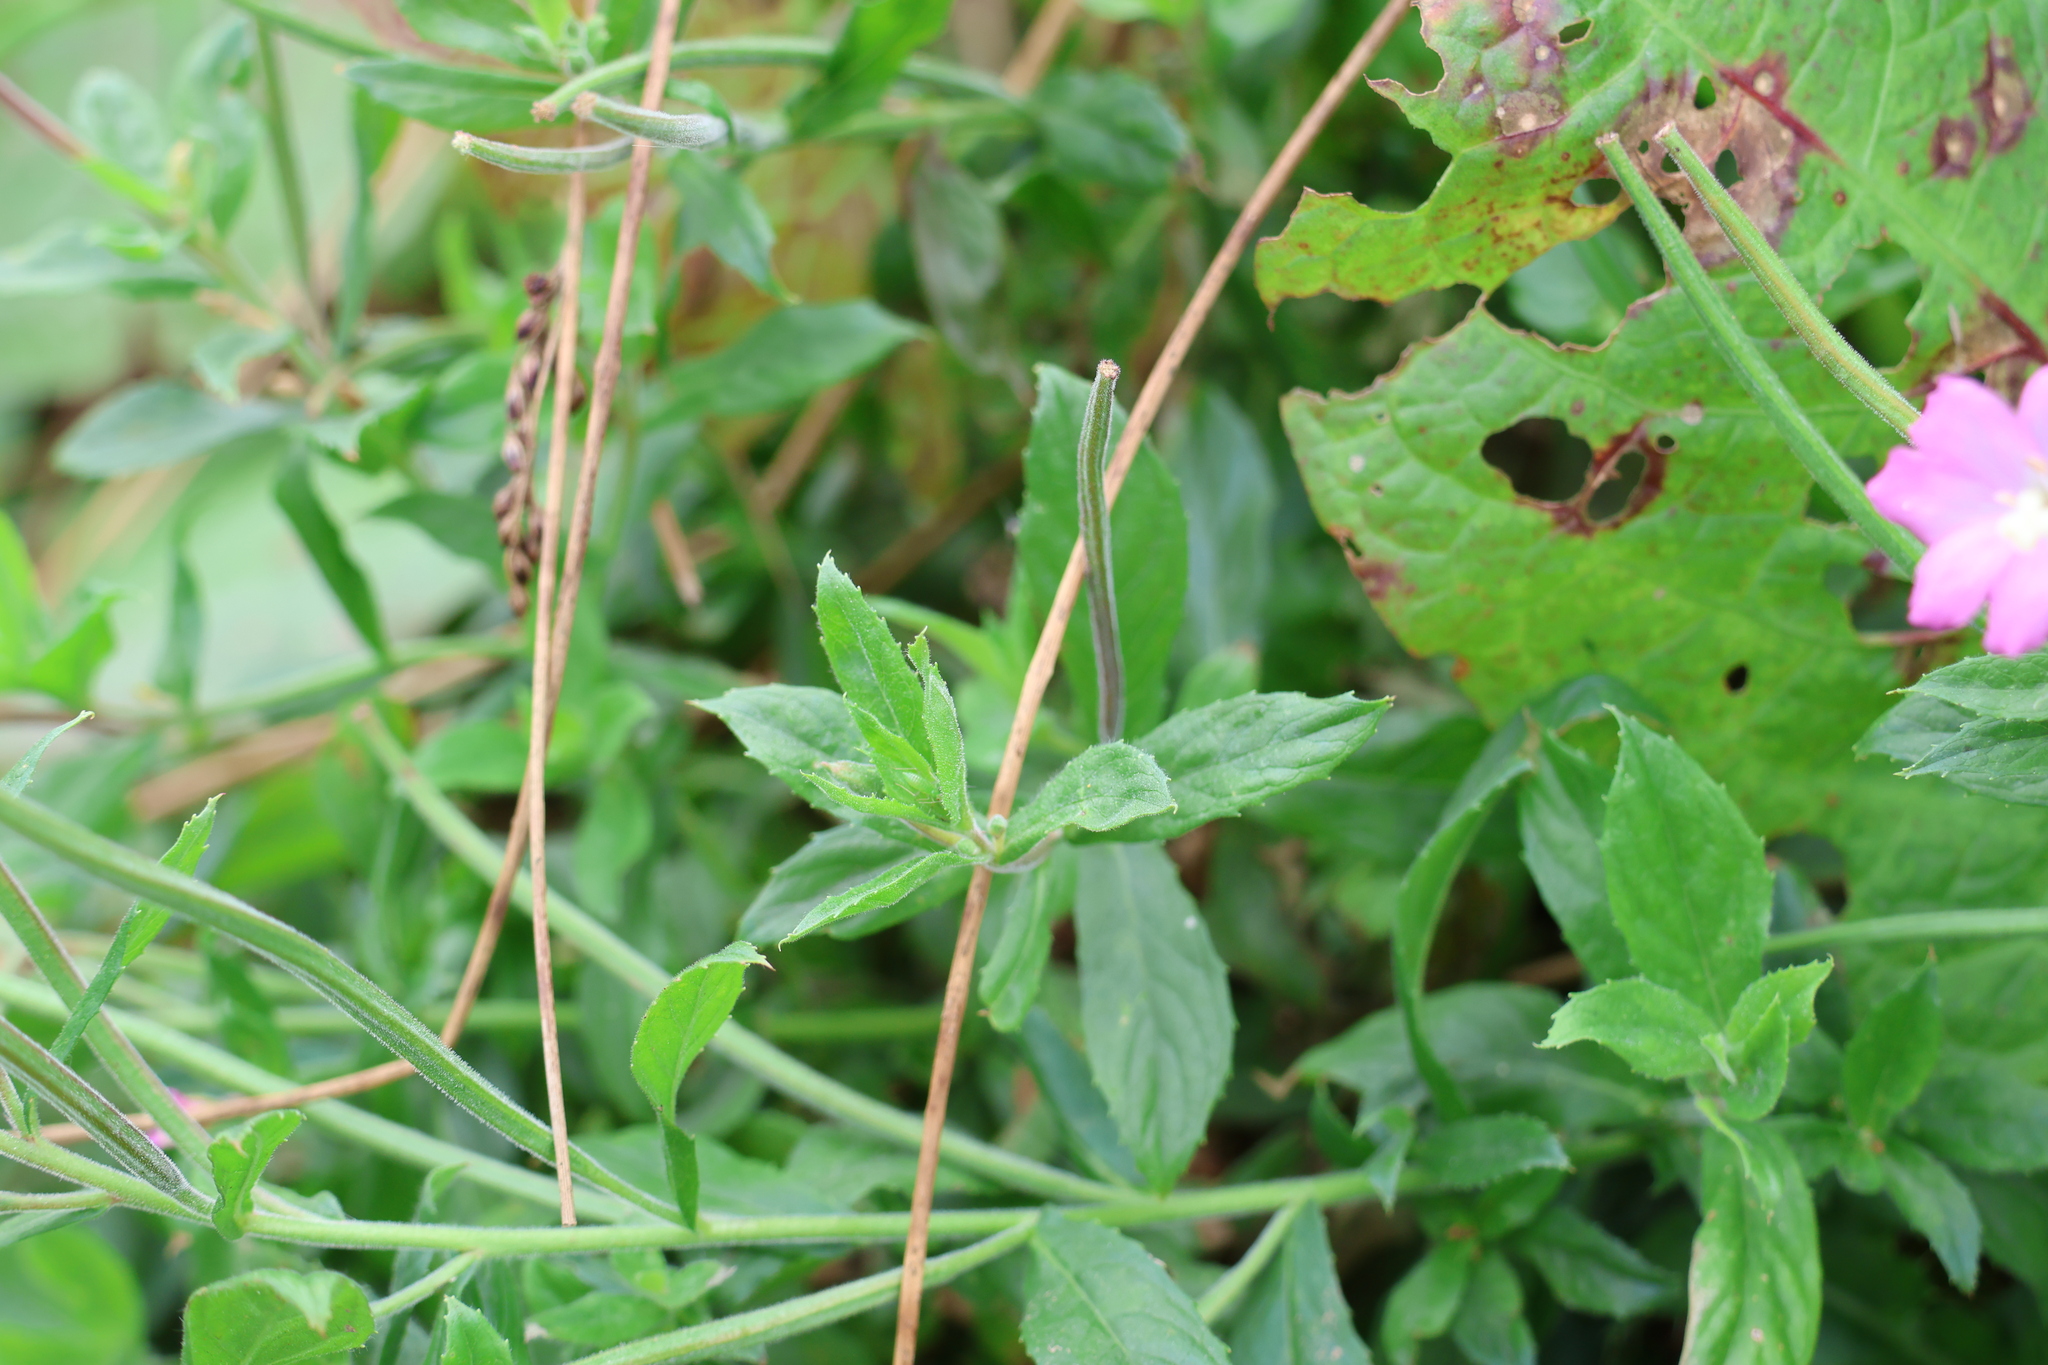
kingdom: Plantae
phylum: Tracheophyta
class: Magnoliopsida
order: Myrtales
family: Onagraceae
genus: Epilobium
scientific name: Epilobium hirsutum
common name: Great willowherb
